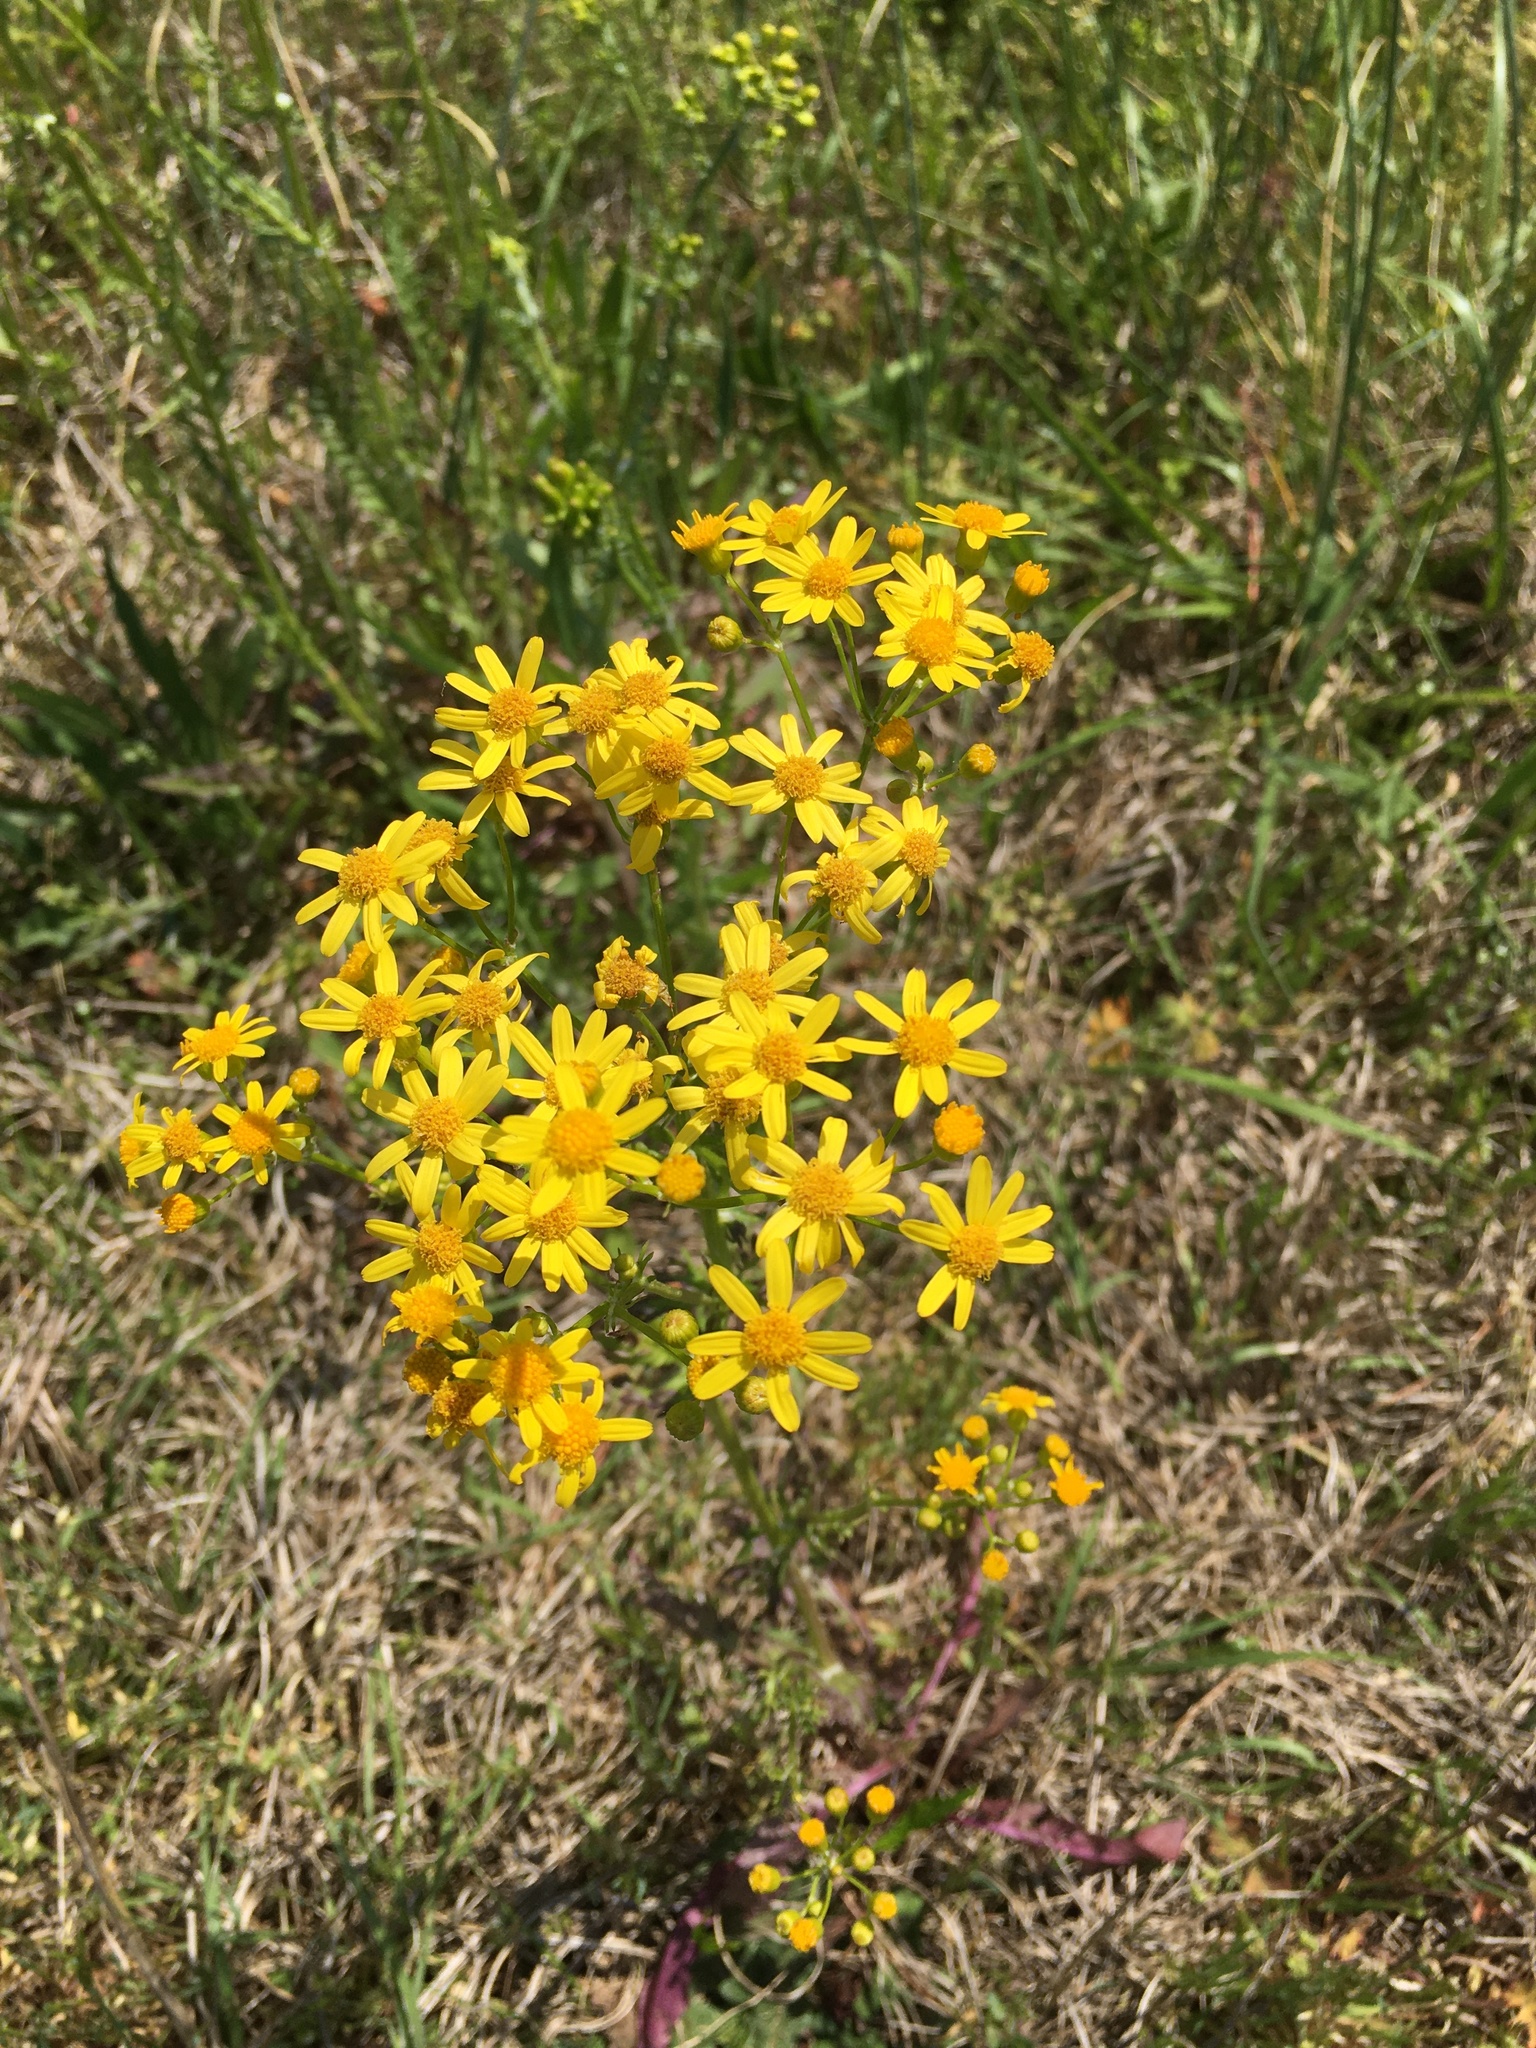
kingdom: Plantae
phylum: Tracheophyta
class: Magnoliopsida
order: Asterales
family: Asteraceae
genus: Packera
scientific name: Packera anonyma
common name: Small ragwort
